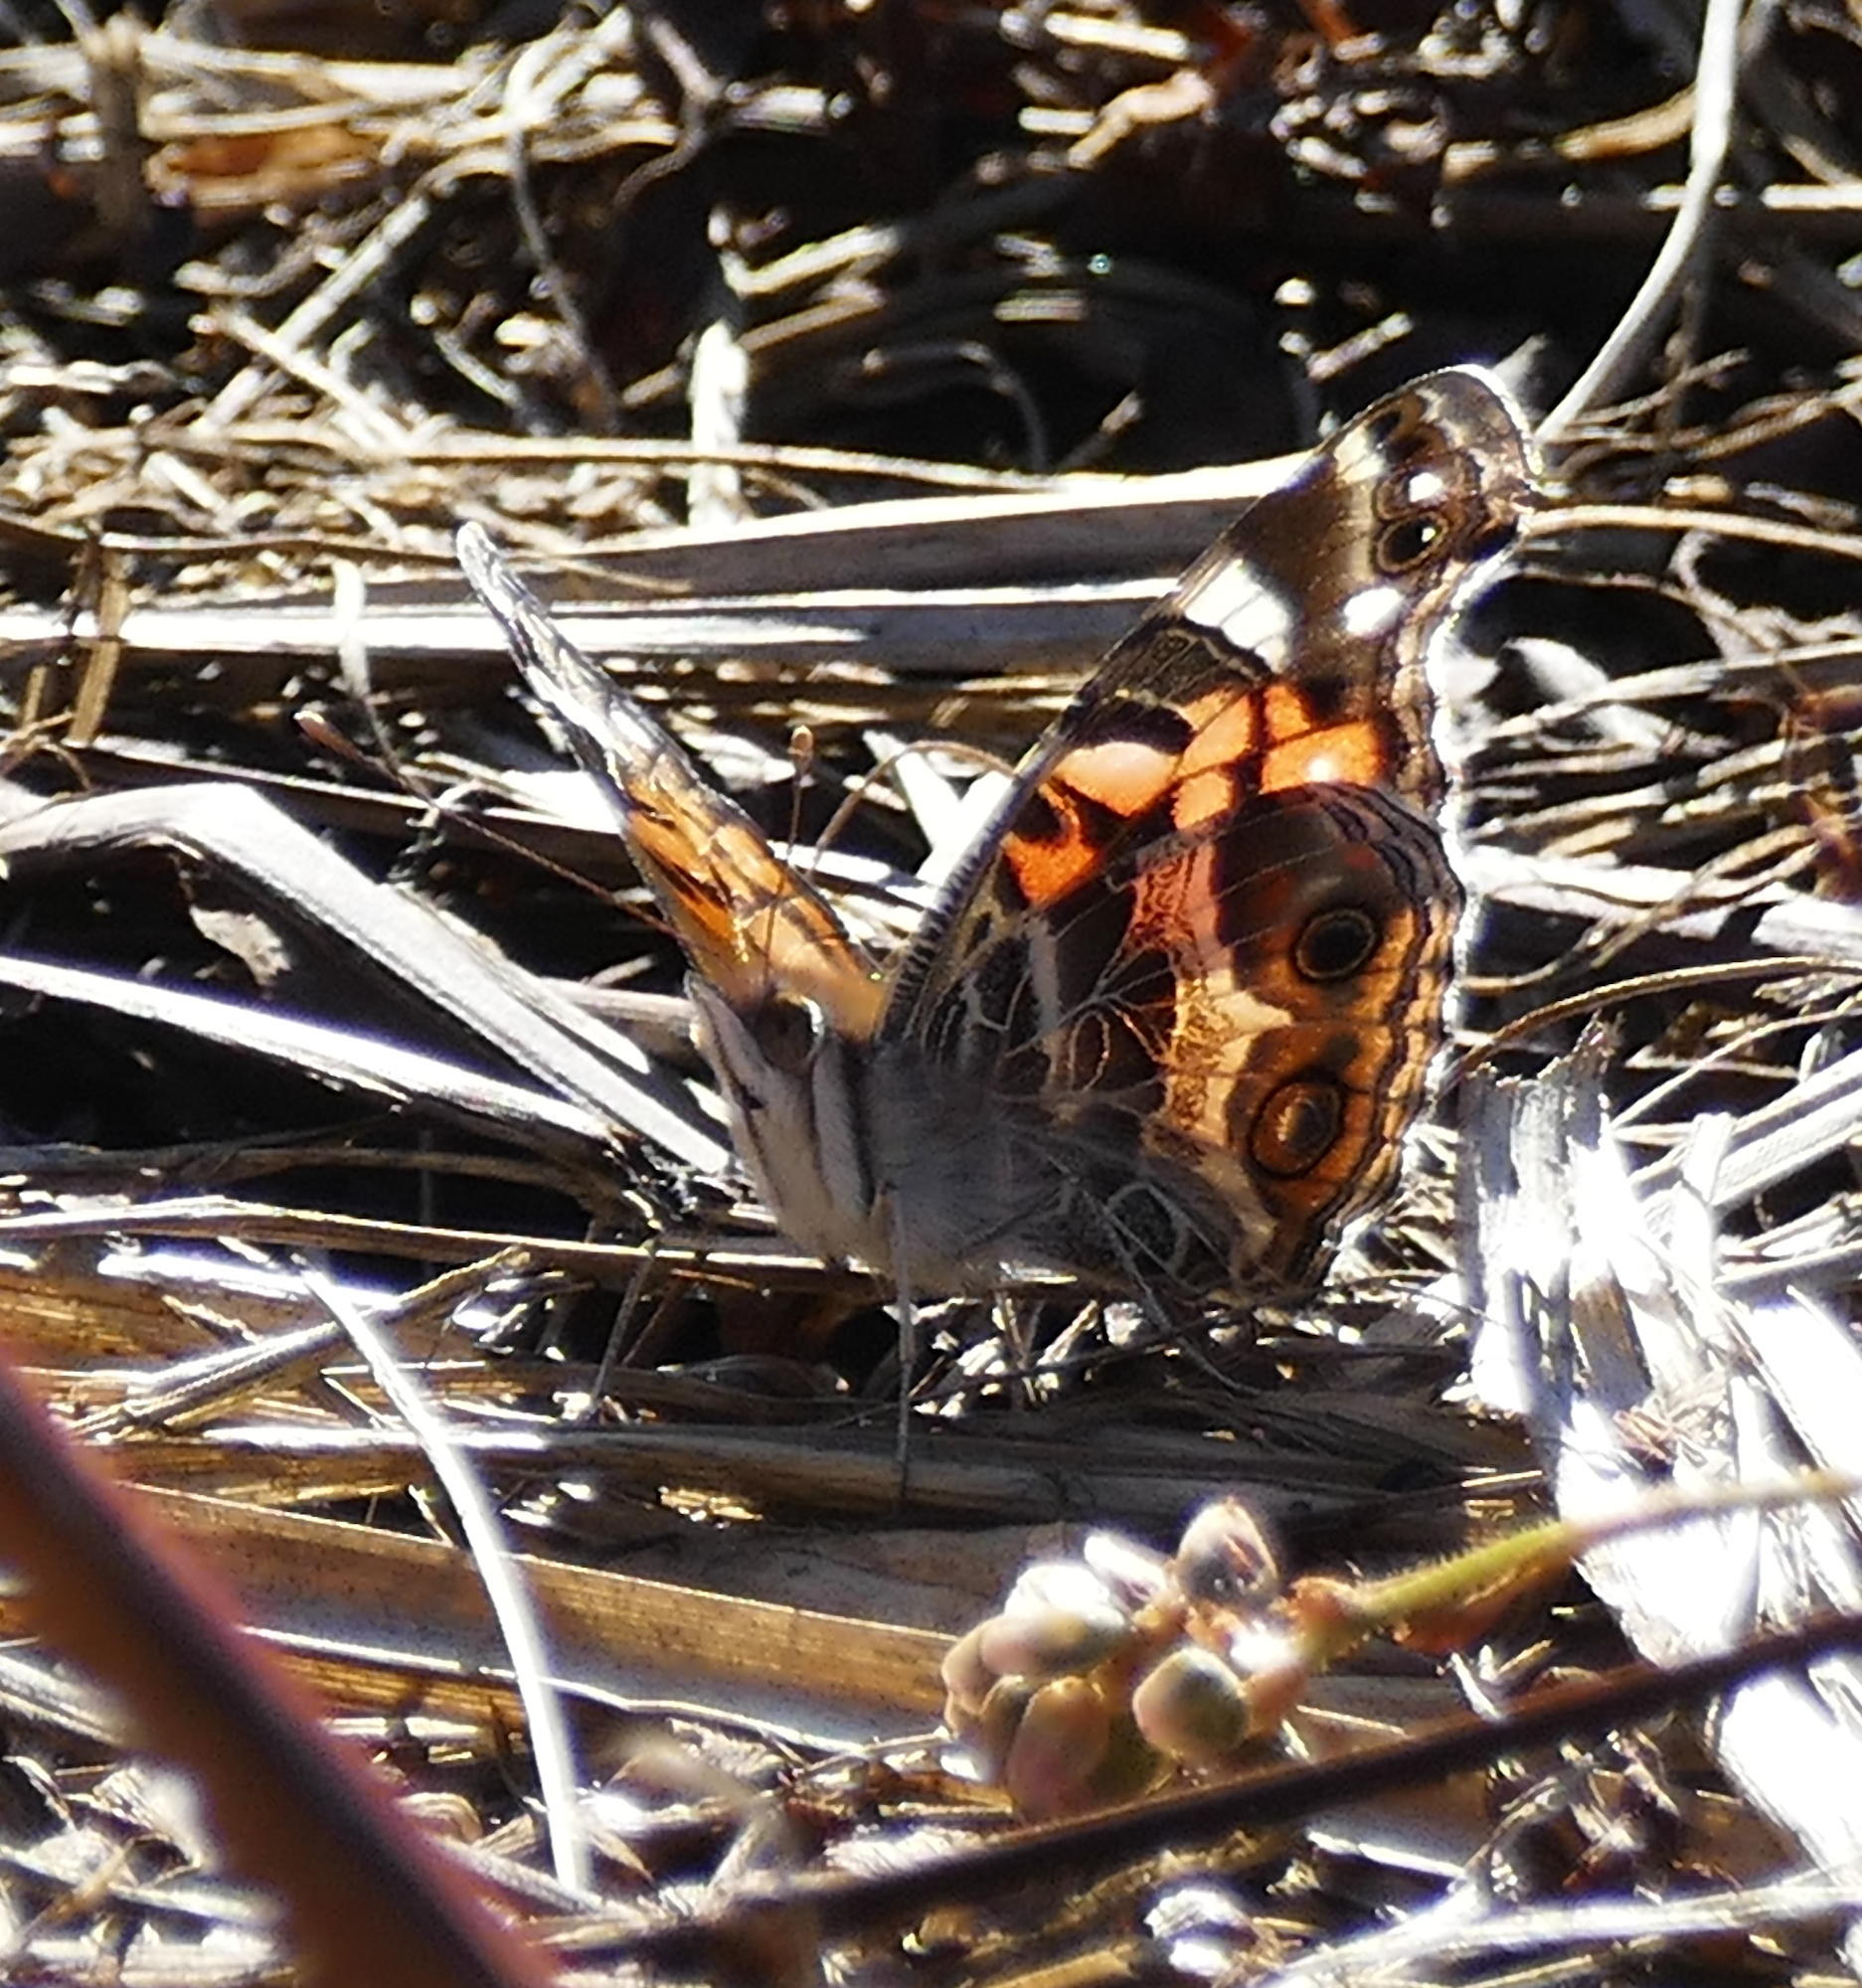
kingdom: Animalia
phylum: Arthropoda
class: Insecta
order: Lepidoptera
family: Nymphalidae
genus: Vanessa
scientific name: Vanessa virginiensis
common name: American lady
